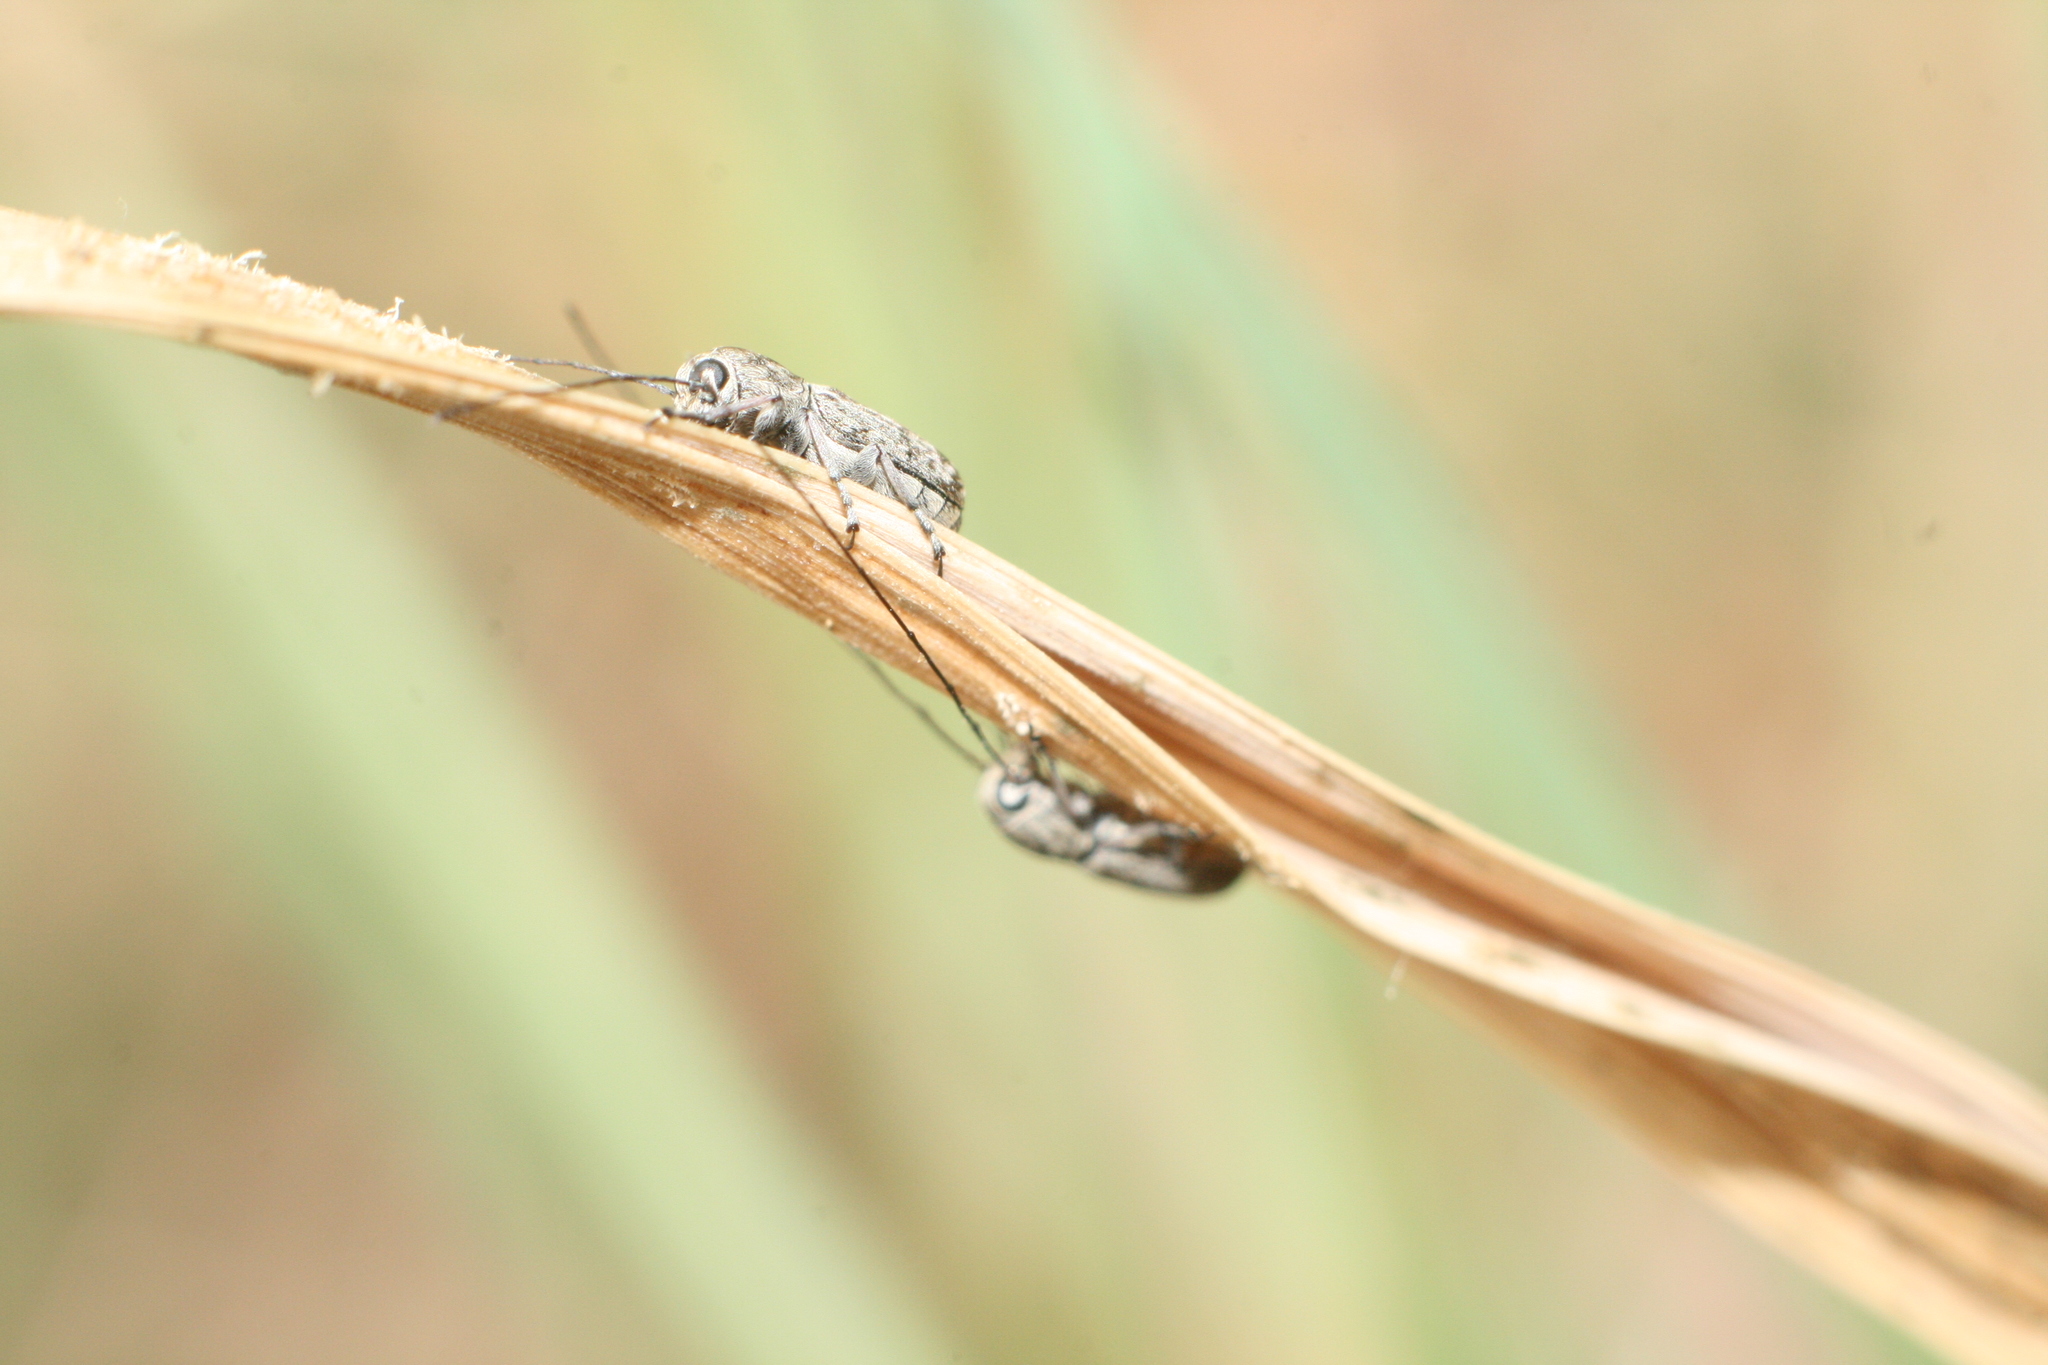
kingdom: Animalia
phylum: Arthropoda
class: Insecta
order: Coleoptera
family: Anthribidae
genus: Euciodes
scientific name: Euciodes suturalis
